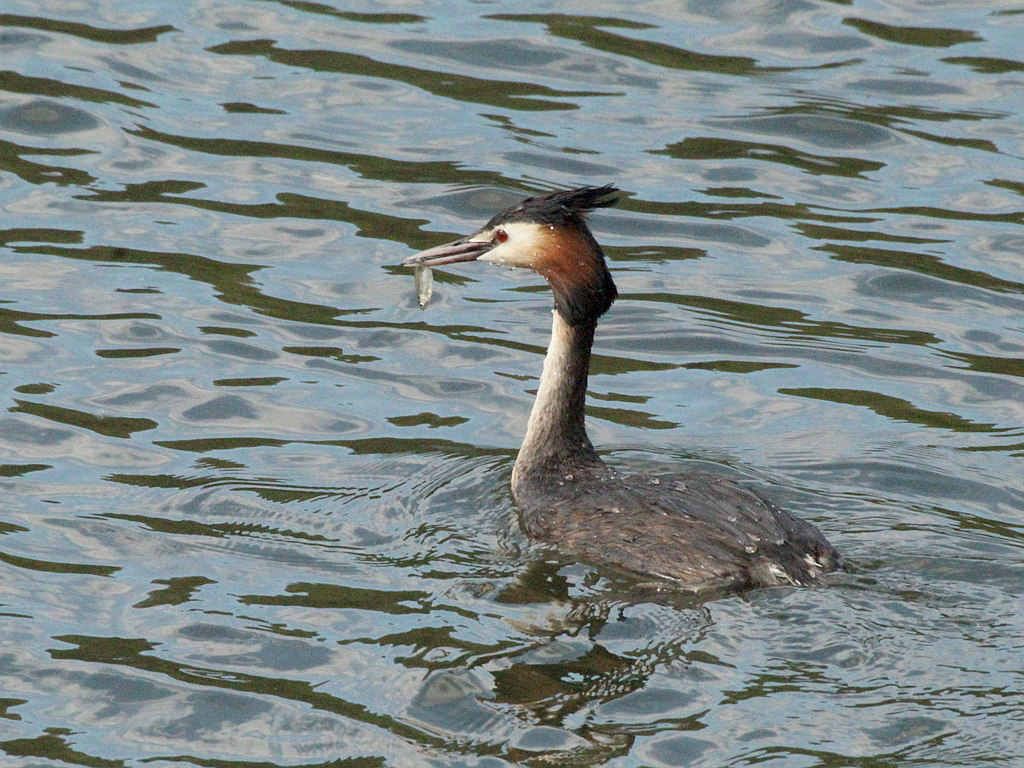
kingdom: Animalia
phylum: Chordata
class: Aves
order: Podicipediformes
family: Podicipedidae
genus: Podiceps
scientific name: Podiceps cristatus
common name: Great crested grebe
